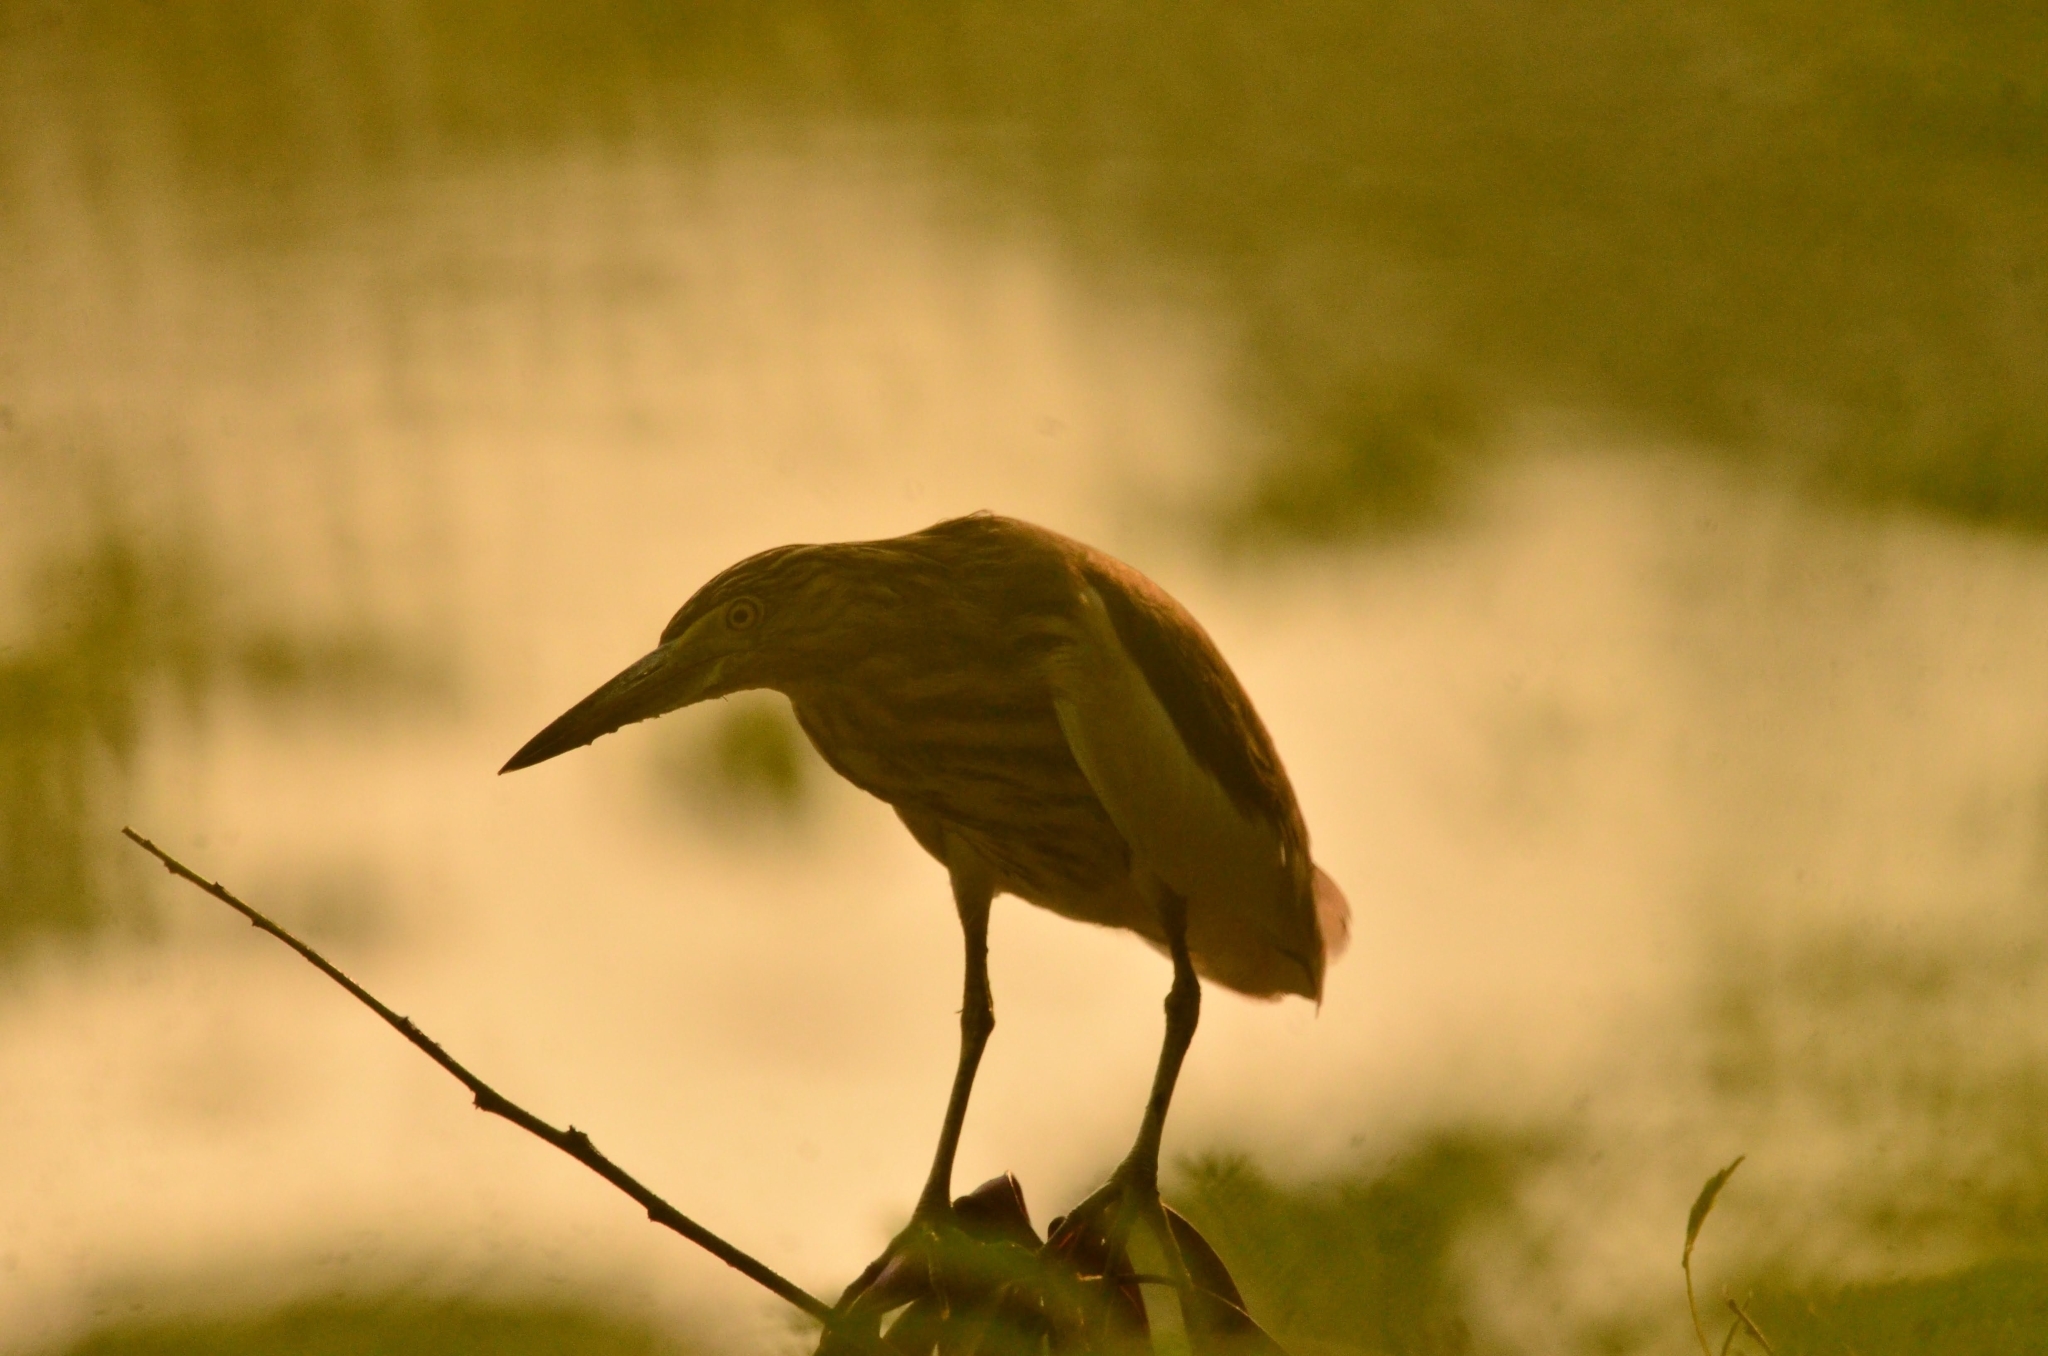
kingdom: Animalia
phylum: Chordata
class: Aves
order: Pelecaniformes
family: Ardeidae
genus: Ardeola
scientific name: Ardeola grayii
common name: Indian pond heron
